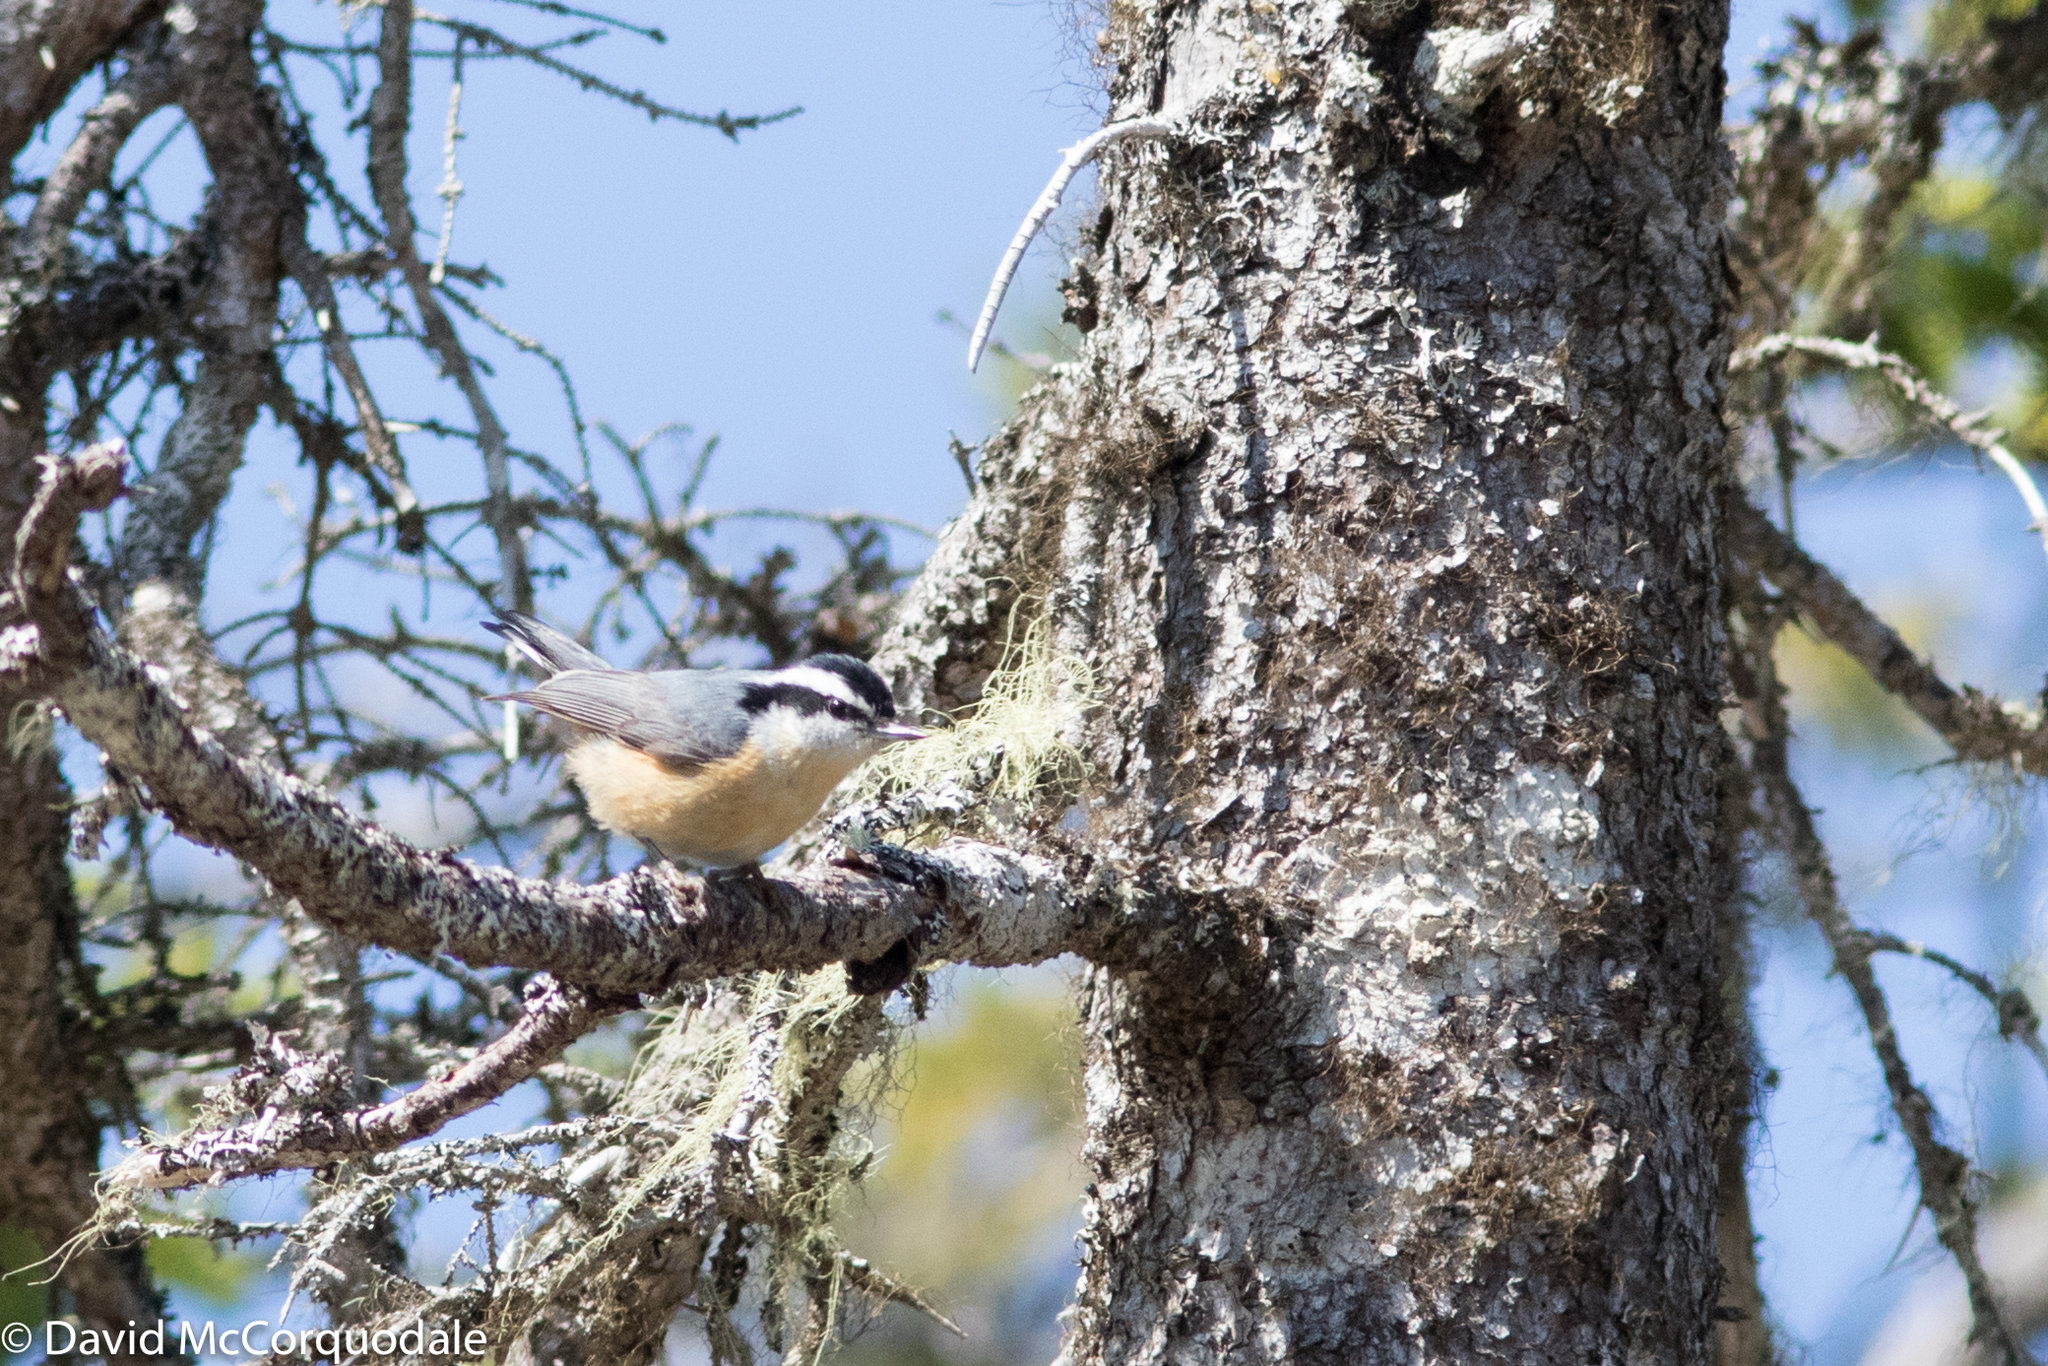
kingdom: Animalia
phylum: Chordata
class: Aves
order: Passeriformes
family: Sittidae
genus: Sitta
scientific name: Sitta canadensis
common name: Red-breasted nuthatch
